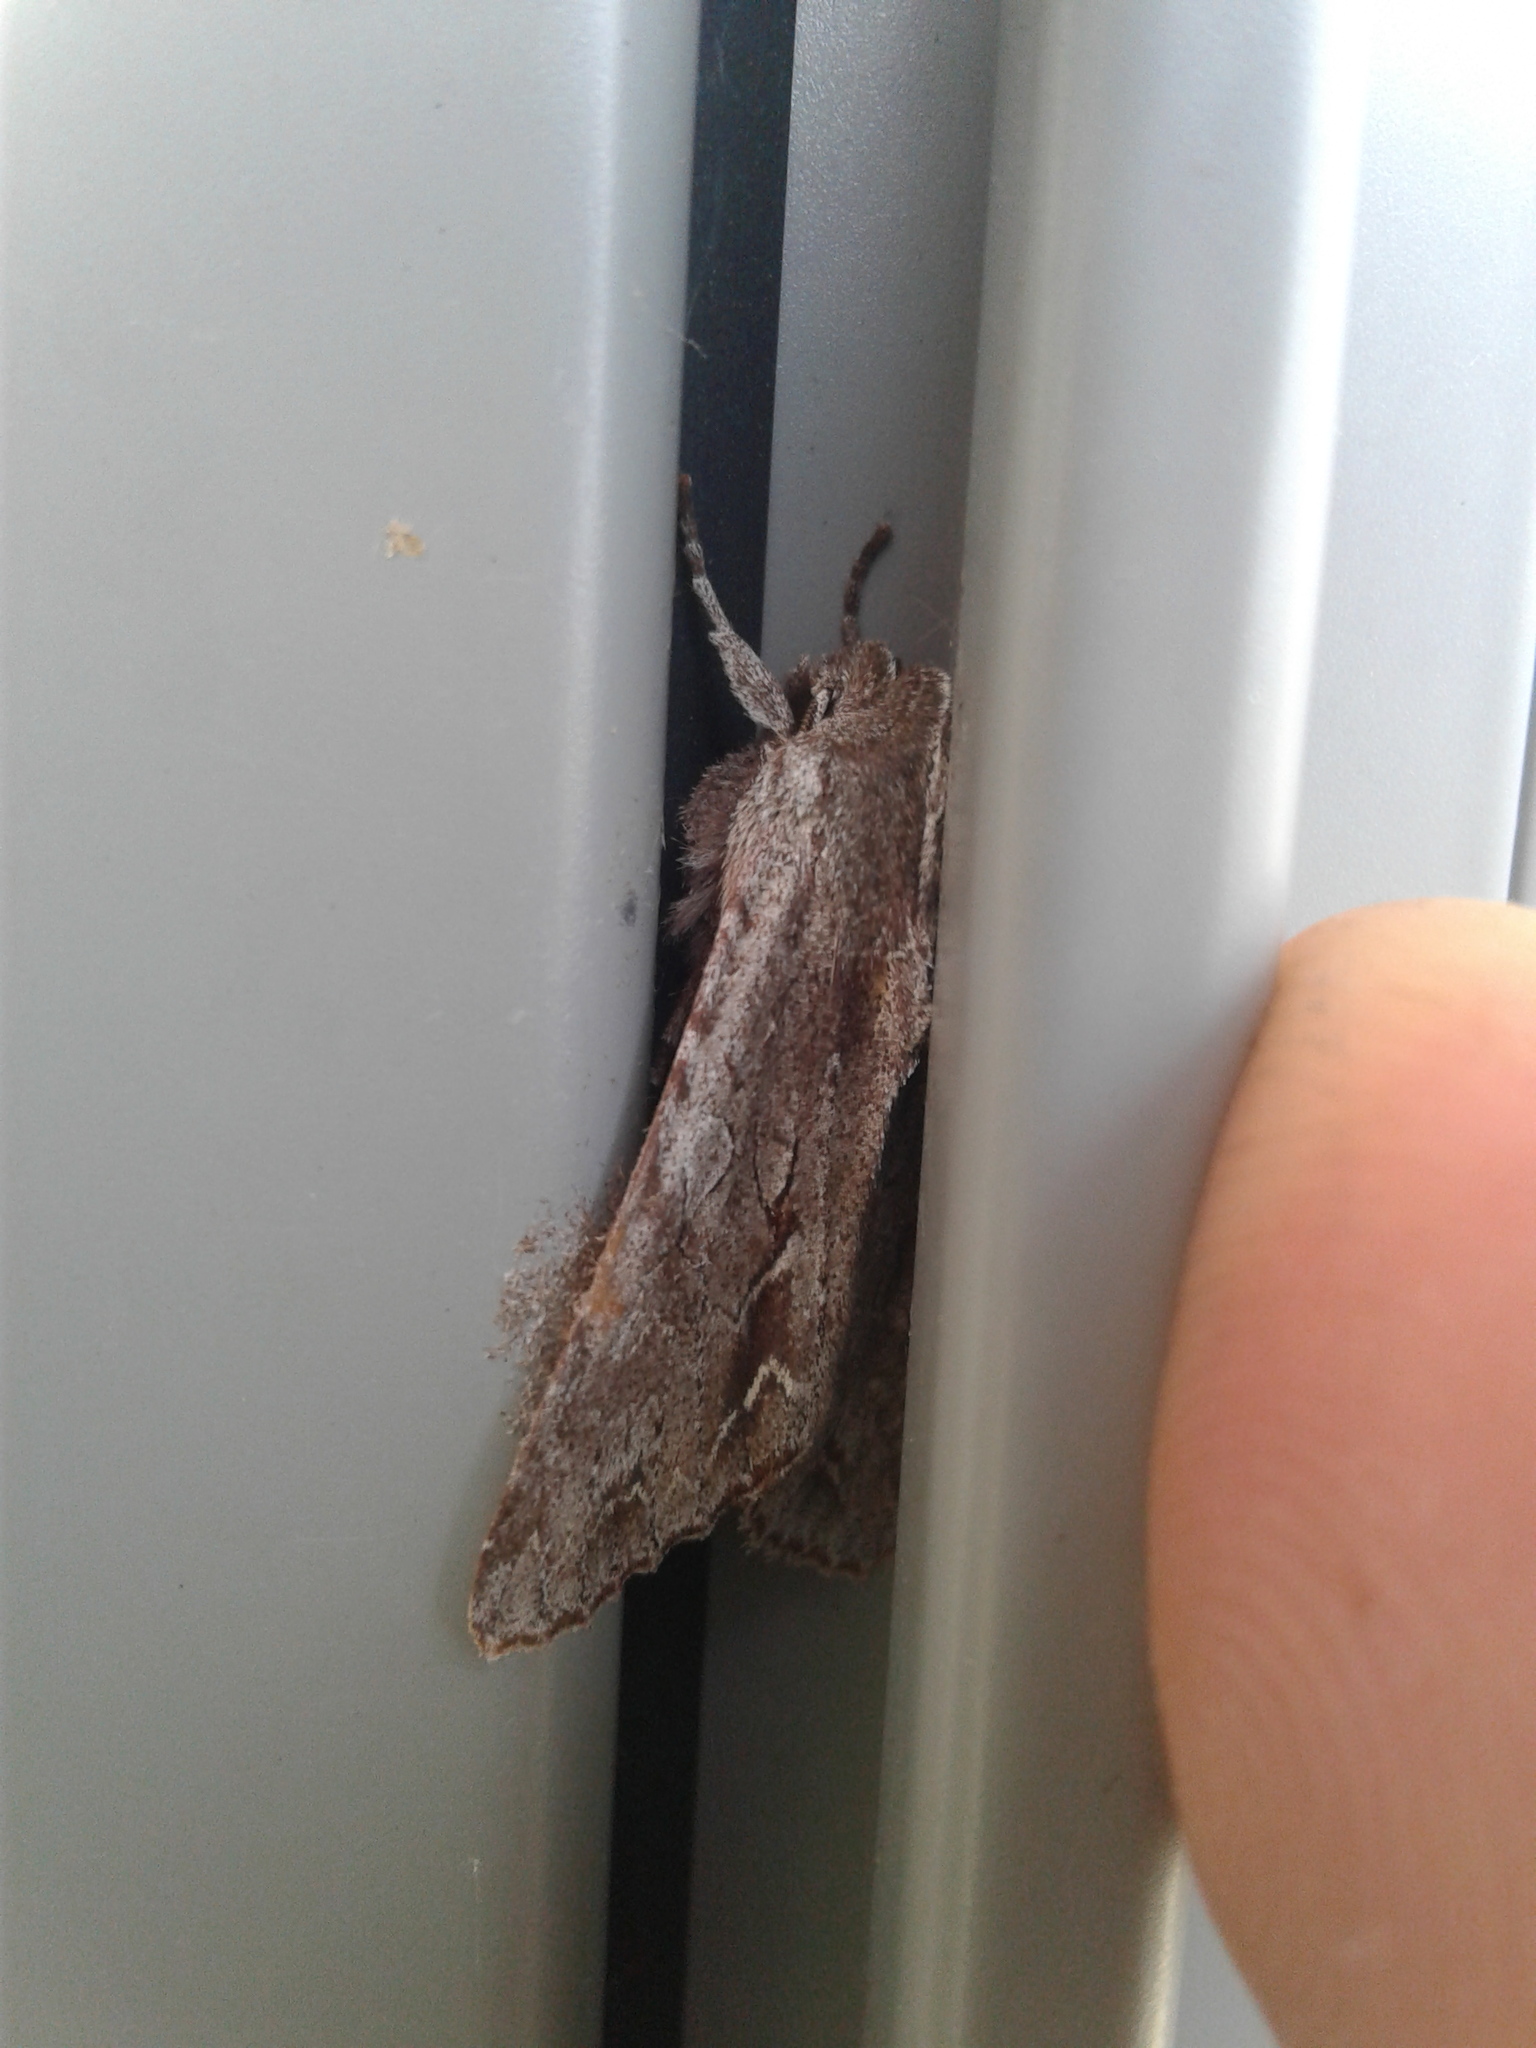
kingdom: Animalia
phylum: Arthropoda
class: Insecta
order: Lepidoptera
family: Noctuidae
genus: Ichneutica
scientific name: Ichneutica
